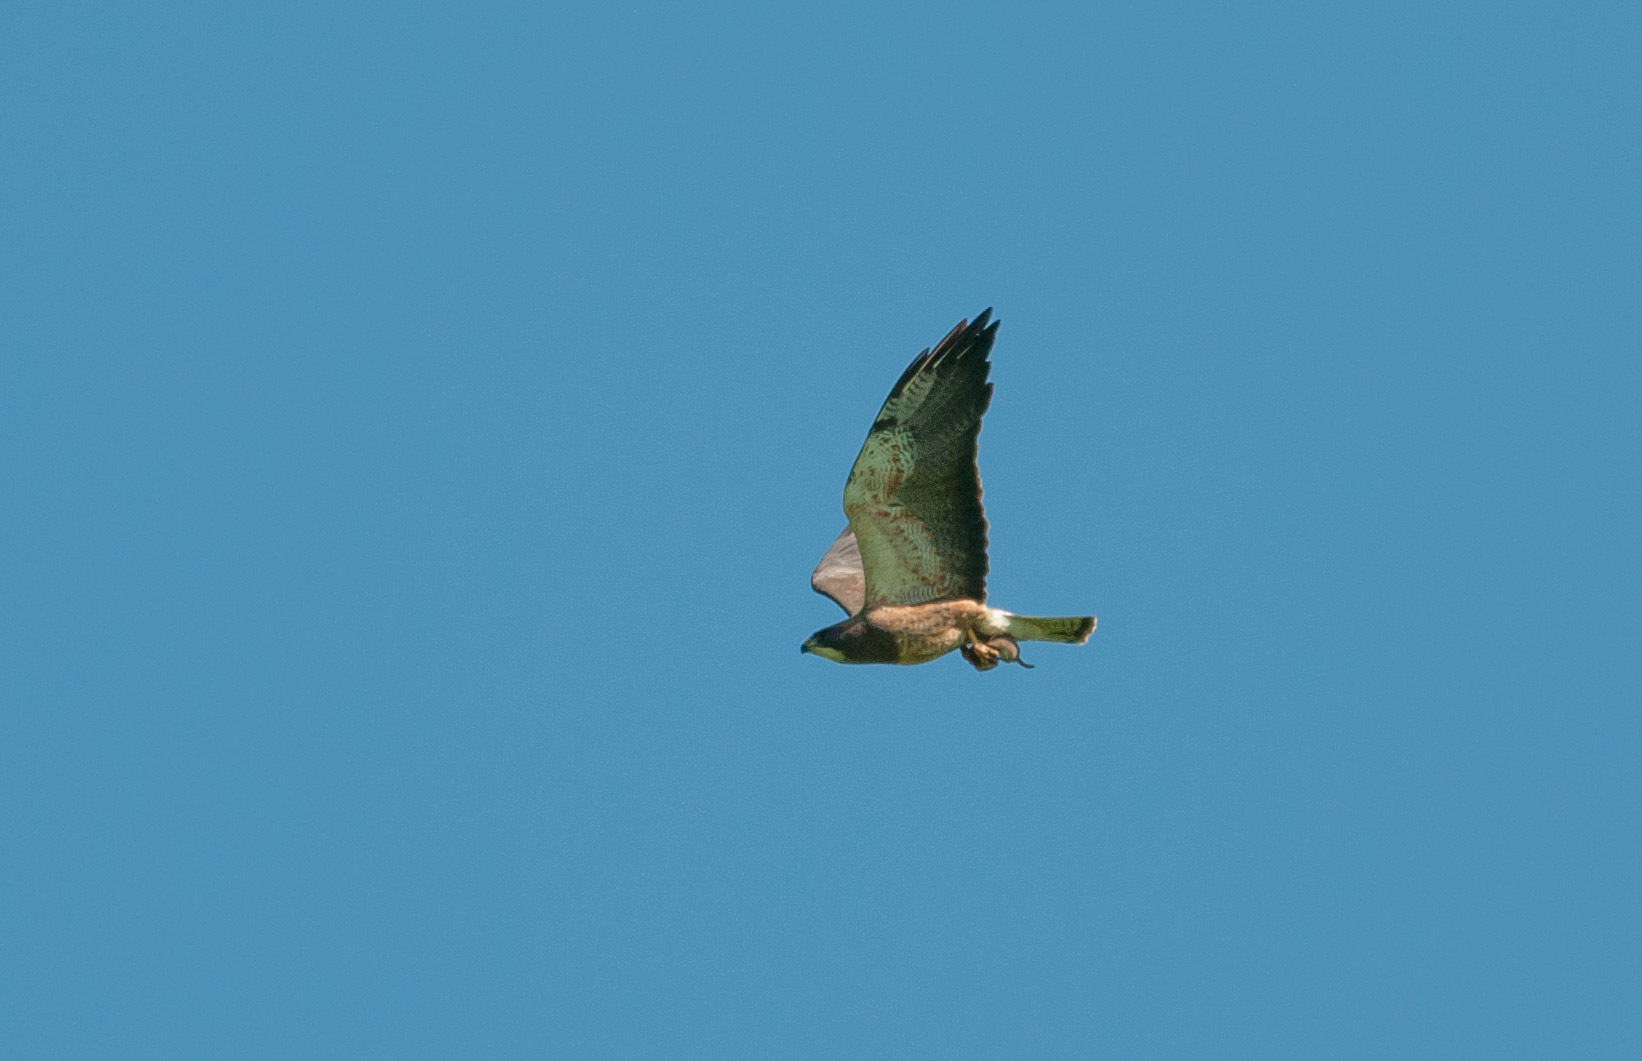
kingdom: Animalia
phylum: Chordata
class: Aves
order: Accipitriformes
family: Accipitridae
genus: Buteo
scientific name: Buteo swainsoni
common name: Swainson's hawk
